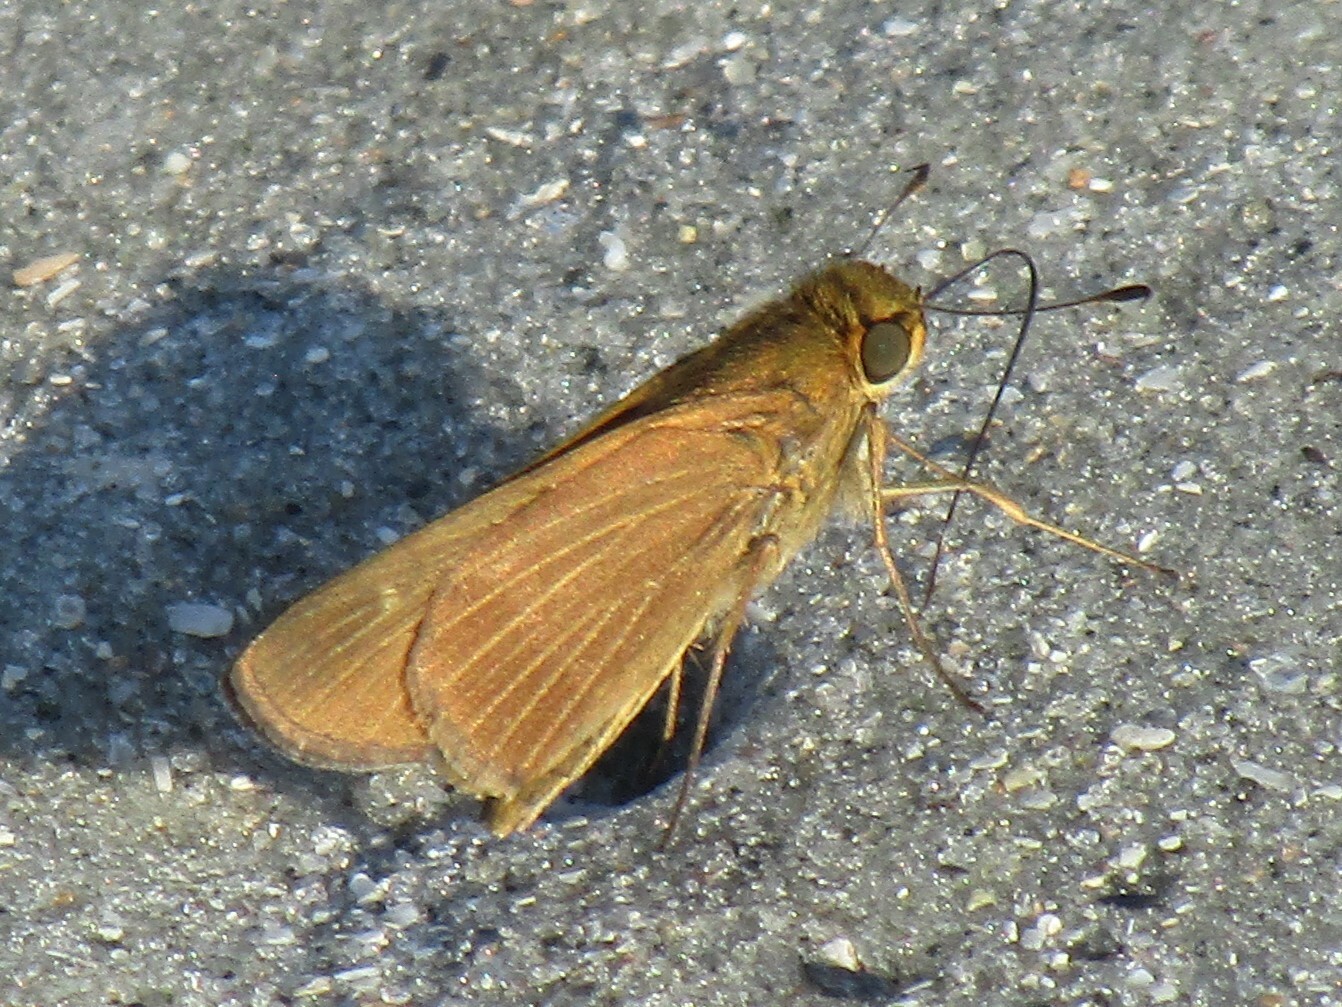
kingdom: Animalia
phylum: Arthropoda
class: Insecta
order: Lepidoptera
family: Hesperiidae
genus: Panoquina
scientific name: Panoquina ocola
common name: Ocola skipper
